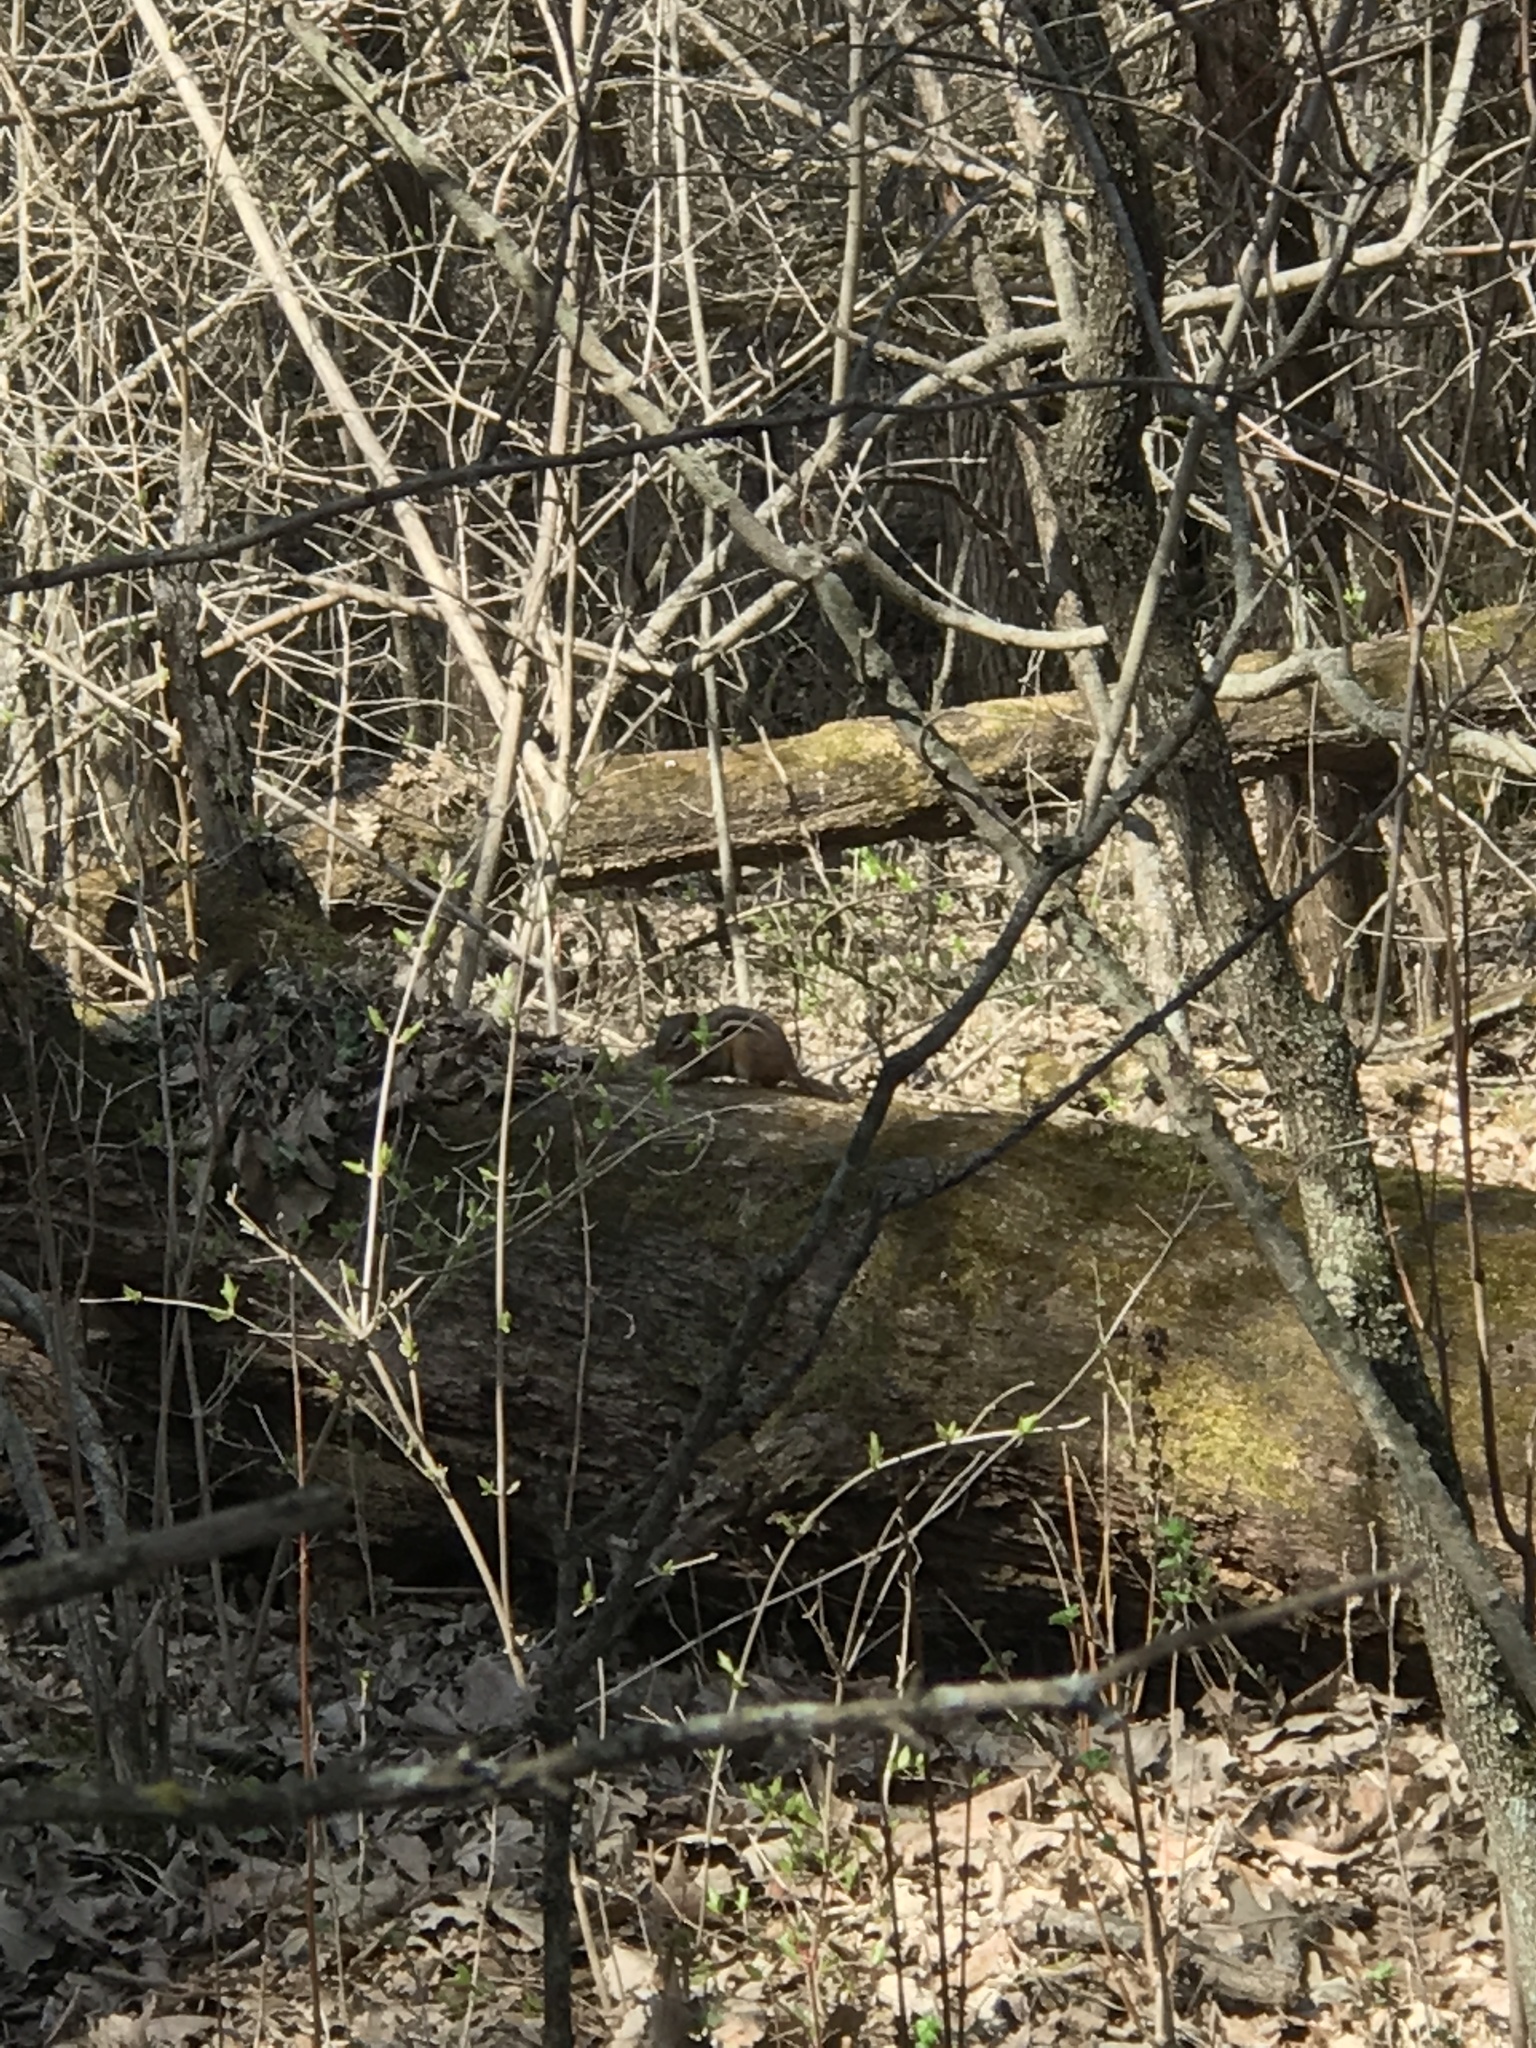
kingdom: Animalia
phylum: Chordata
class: Mammalia
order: Rodentia
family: Sciuridae
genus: Tamias
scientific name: Tamias striatus
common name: Eastern chipmunk
